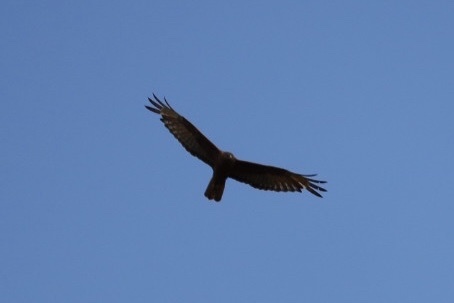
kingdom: Animalia
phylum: Chordata
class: Aves
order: Accipitriformes
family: Accipitridae
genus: Circus
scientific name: Circus approximans
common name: Swamp harrier
